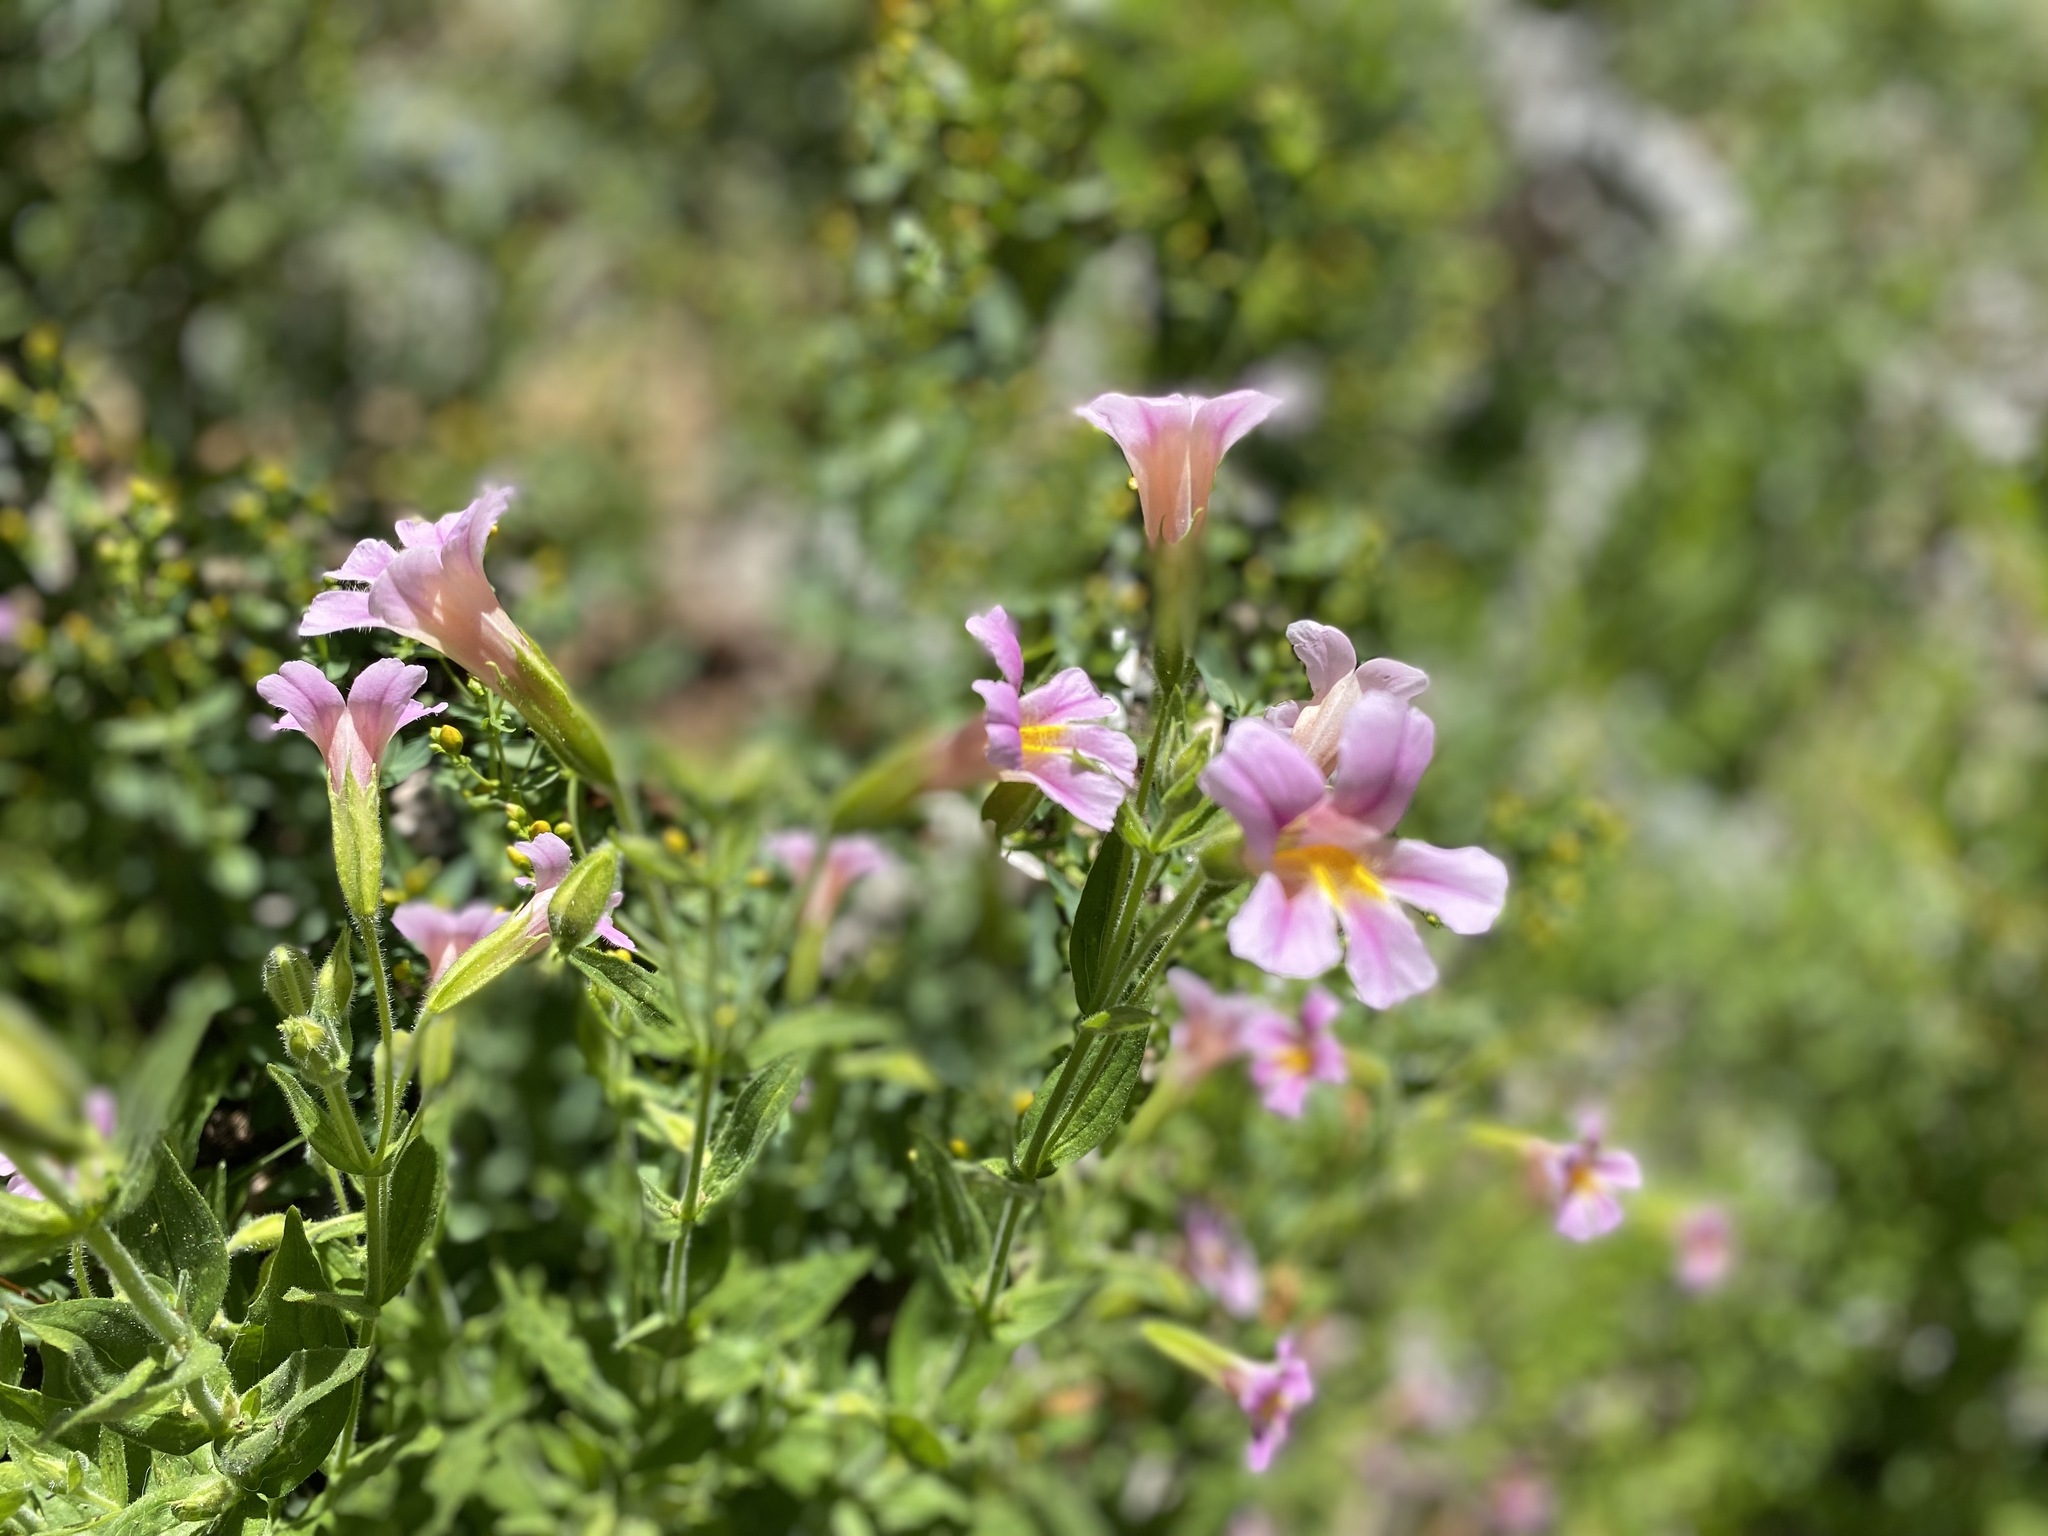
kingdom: Plantae
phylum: Tracheophyta
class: Magnoliopsida
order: Lamiales
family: Phrymaceae
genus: Erythranthe
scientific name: Erythranthe erubescens
